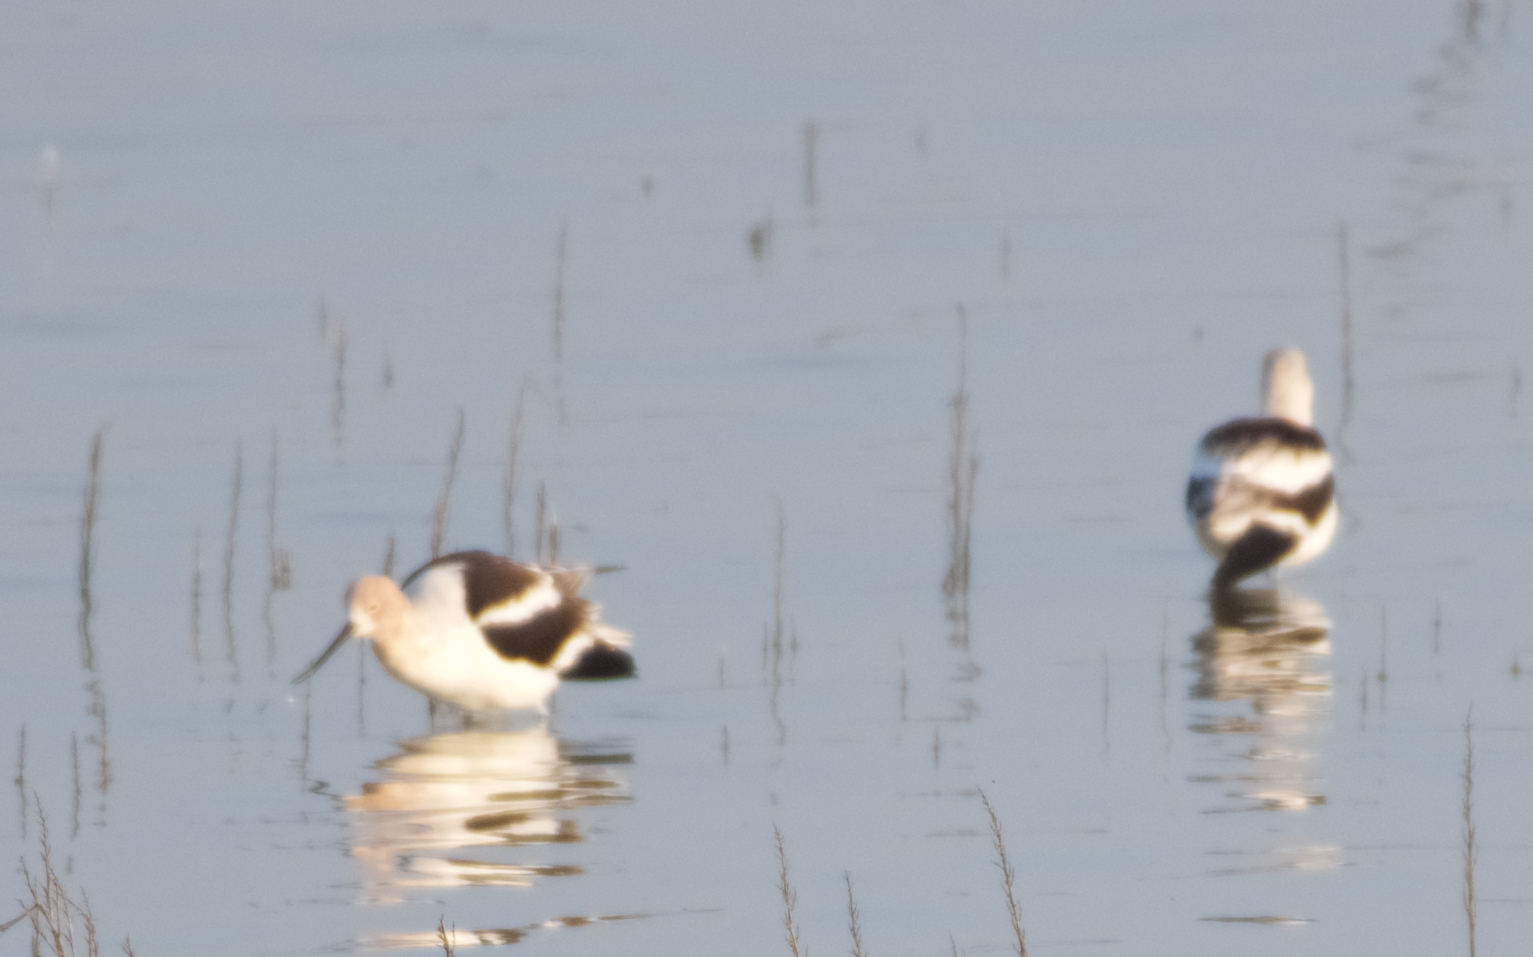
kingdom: Animalia
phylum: Chordata
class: Aves
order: Charadriiformes
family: Recurvirostridae
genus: Recurvirostra
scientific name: Recurvirostra americana
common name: American avocet
